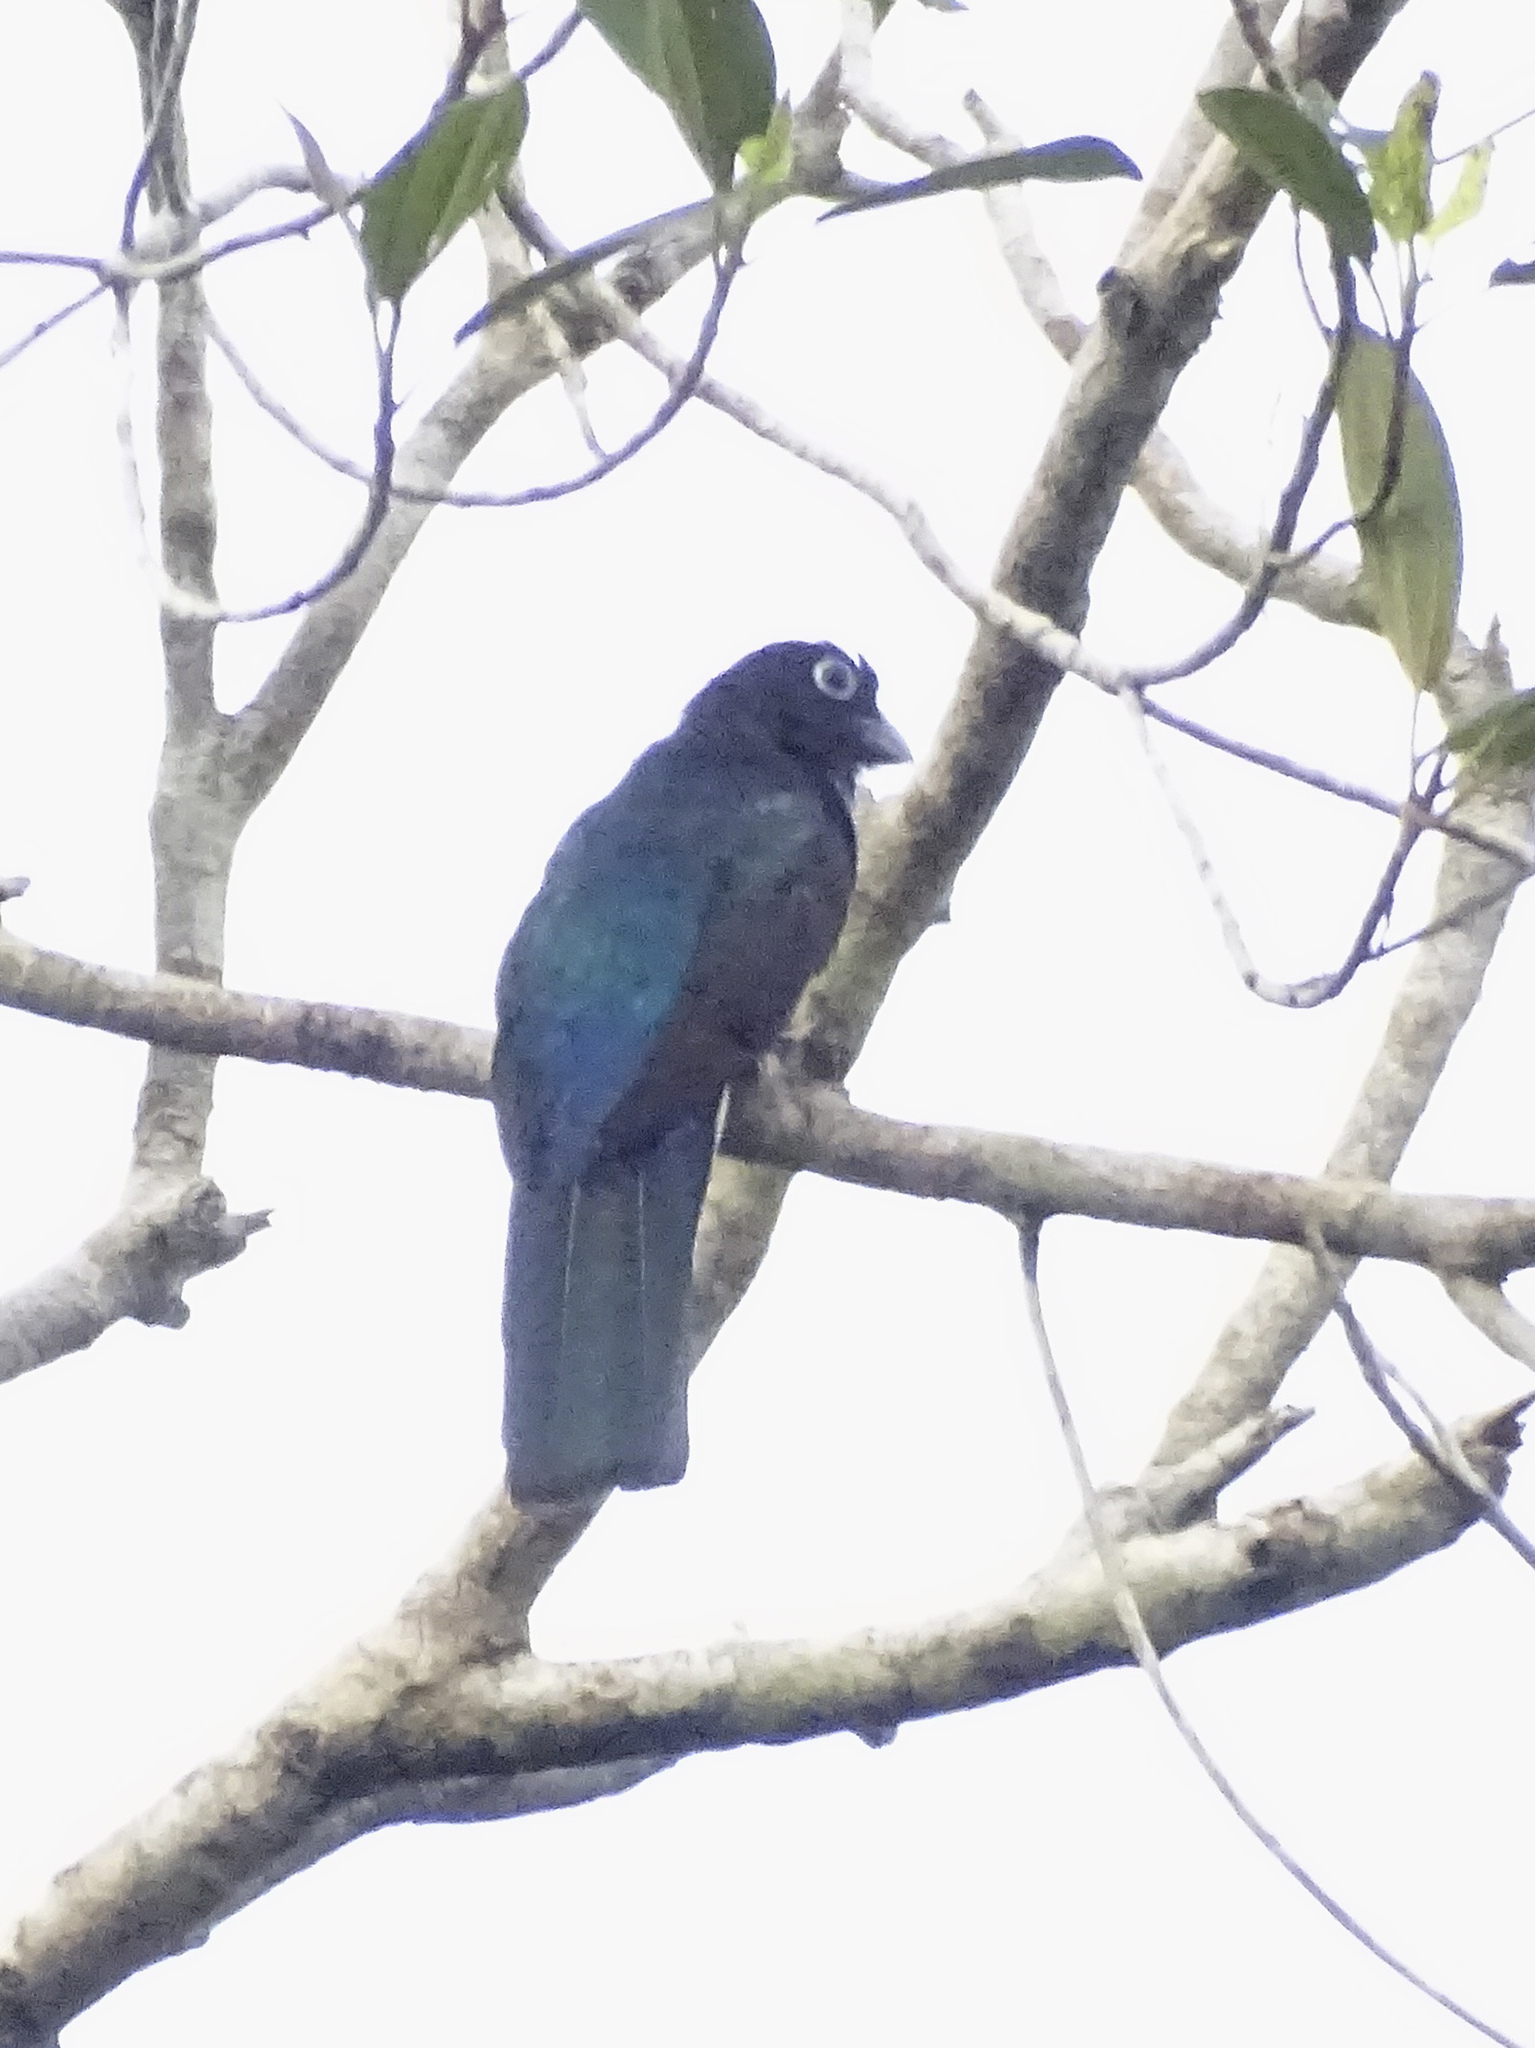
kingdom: Animalia
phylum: Chordata
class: Aves
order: Trogoniformes
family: Trogonidae
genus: Trogon
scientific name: Trogon viridis
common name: Green-backed trogon
